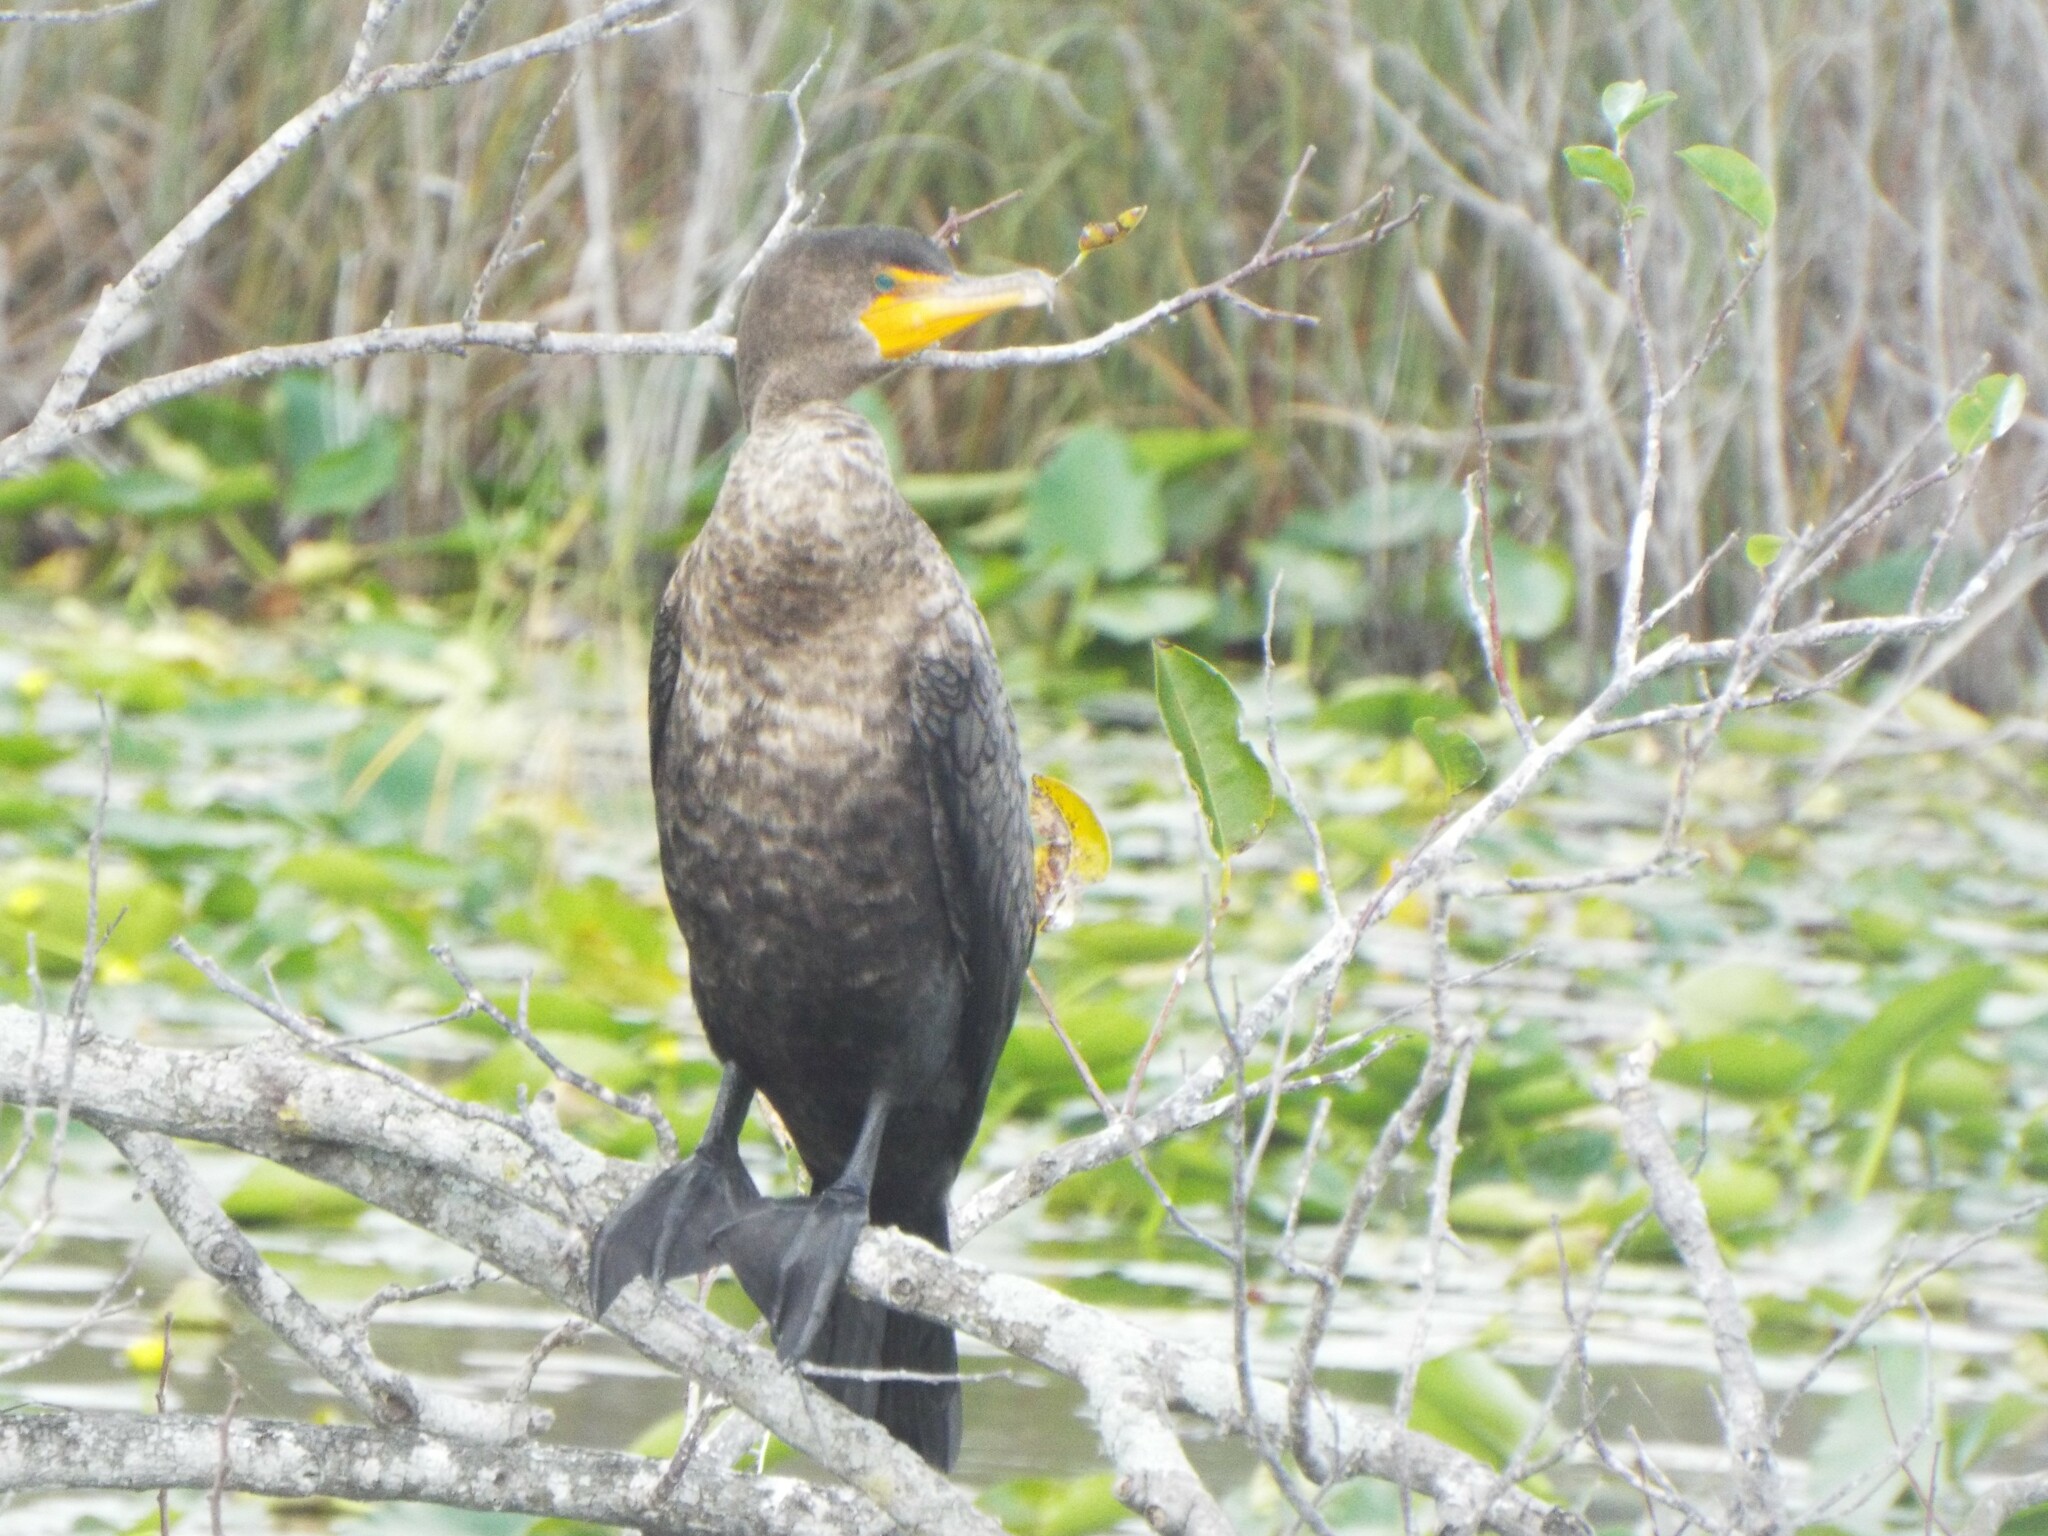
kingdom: Animalia
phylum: Chordata
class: Aves
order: Suliformes
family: Phalacrocoracidae
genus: Phalacrocorax
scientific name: Phalacrocorax auritus
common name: Double-crested cormorant
